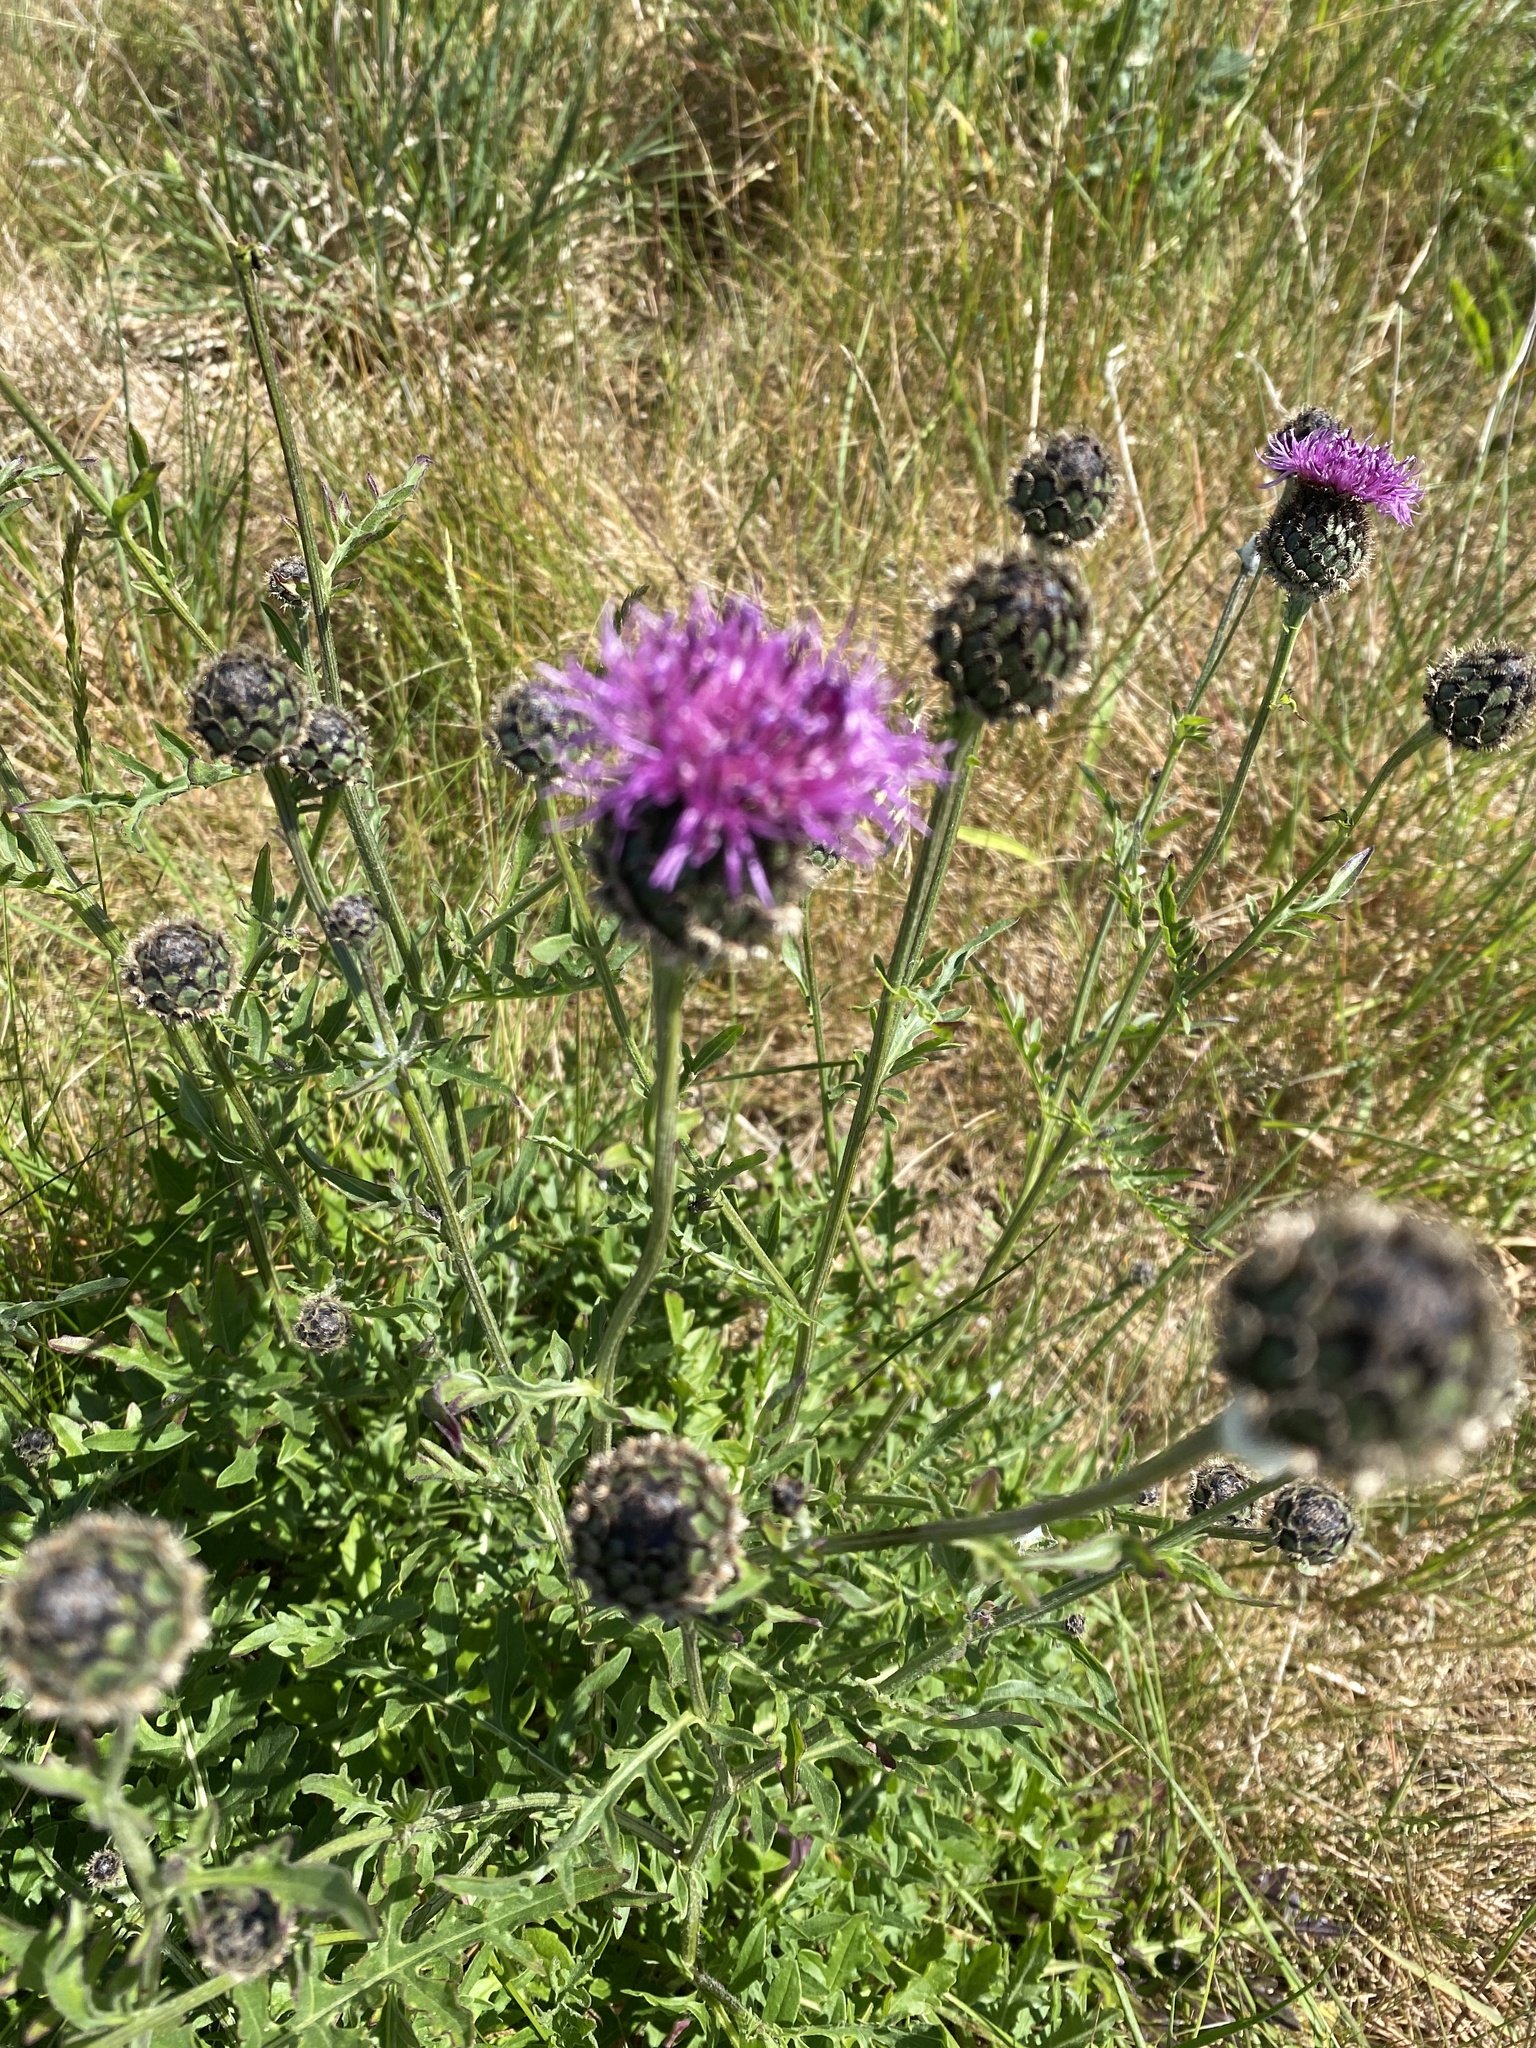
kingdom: Plantae
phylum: Tracheophyta
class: Magnoliopsida
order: Asterales
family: Asteraceae
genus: Centaurea
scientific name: Centaurea scabiosa
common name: Greater knapweed
